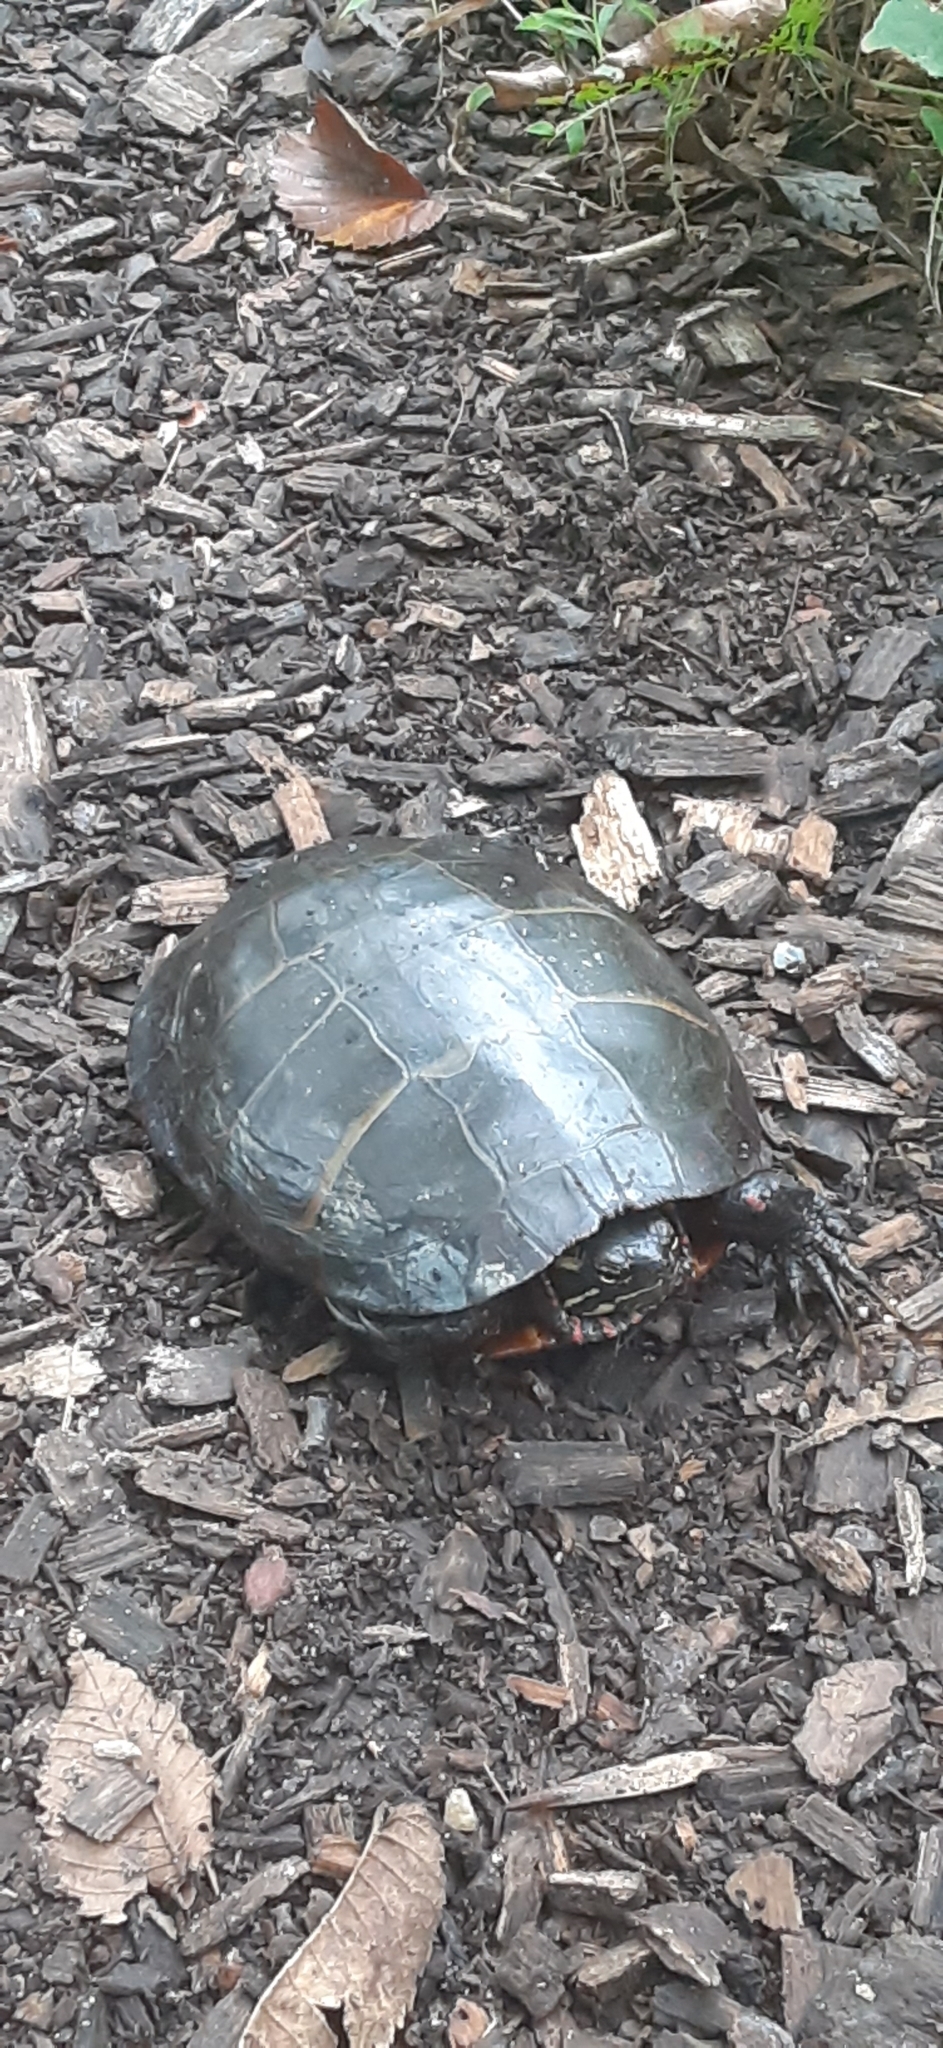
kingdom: Animalia
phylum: Chordata
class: Testudines
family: Emydidae
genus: Chrysemys
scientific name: Chrysemys picta
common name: Painted turtle
